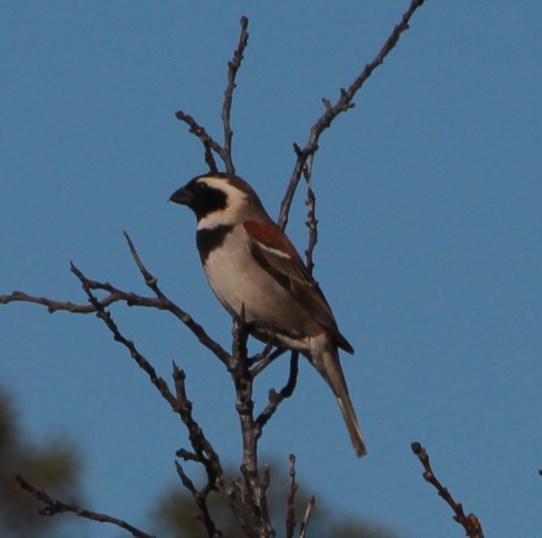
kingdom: Animalia
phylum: Chordata
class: Aves
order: Passeriformes
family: Passeridae
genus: Passer
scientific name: Passer melanurus
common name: Cape sparrow
